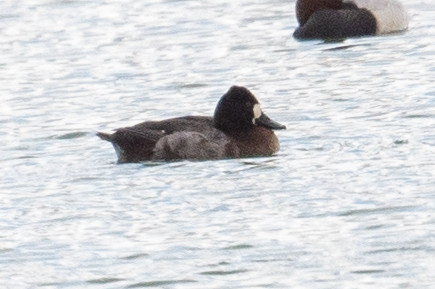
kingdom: Animalia
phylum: Chordata
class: Aves
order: Anseriformes
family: Anatidae
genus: Aythya
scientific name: Aythya affinis
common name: Lesser scaup
